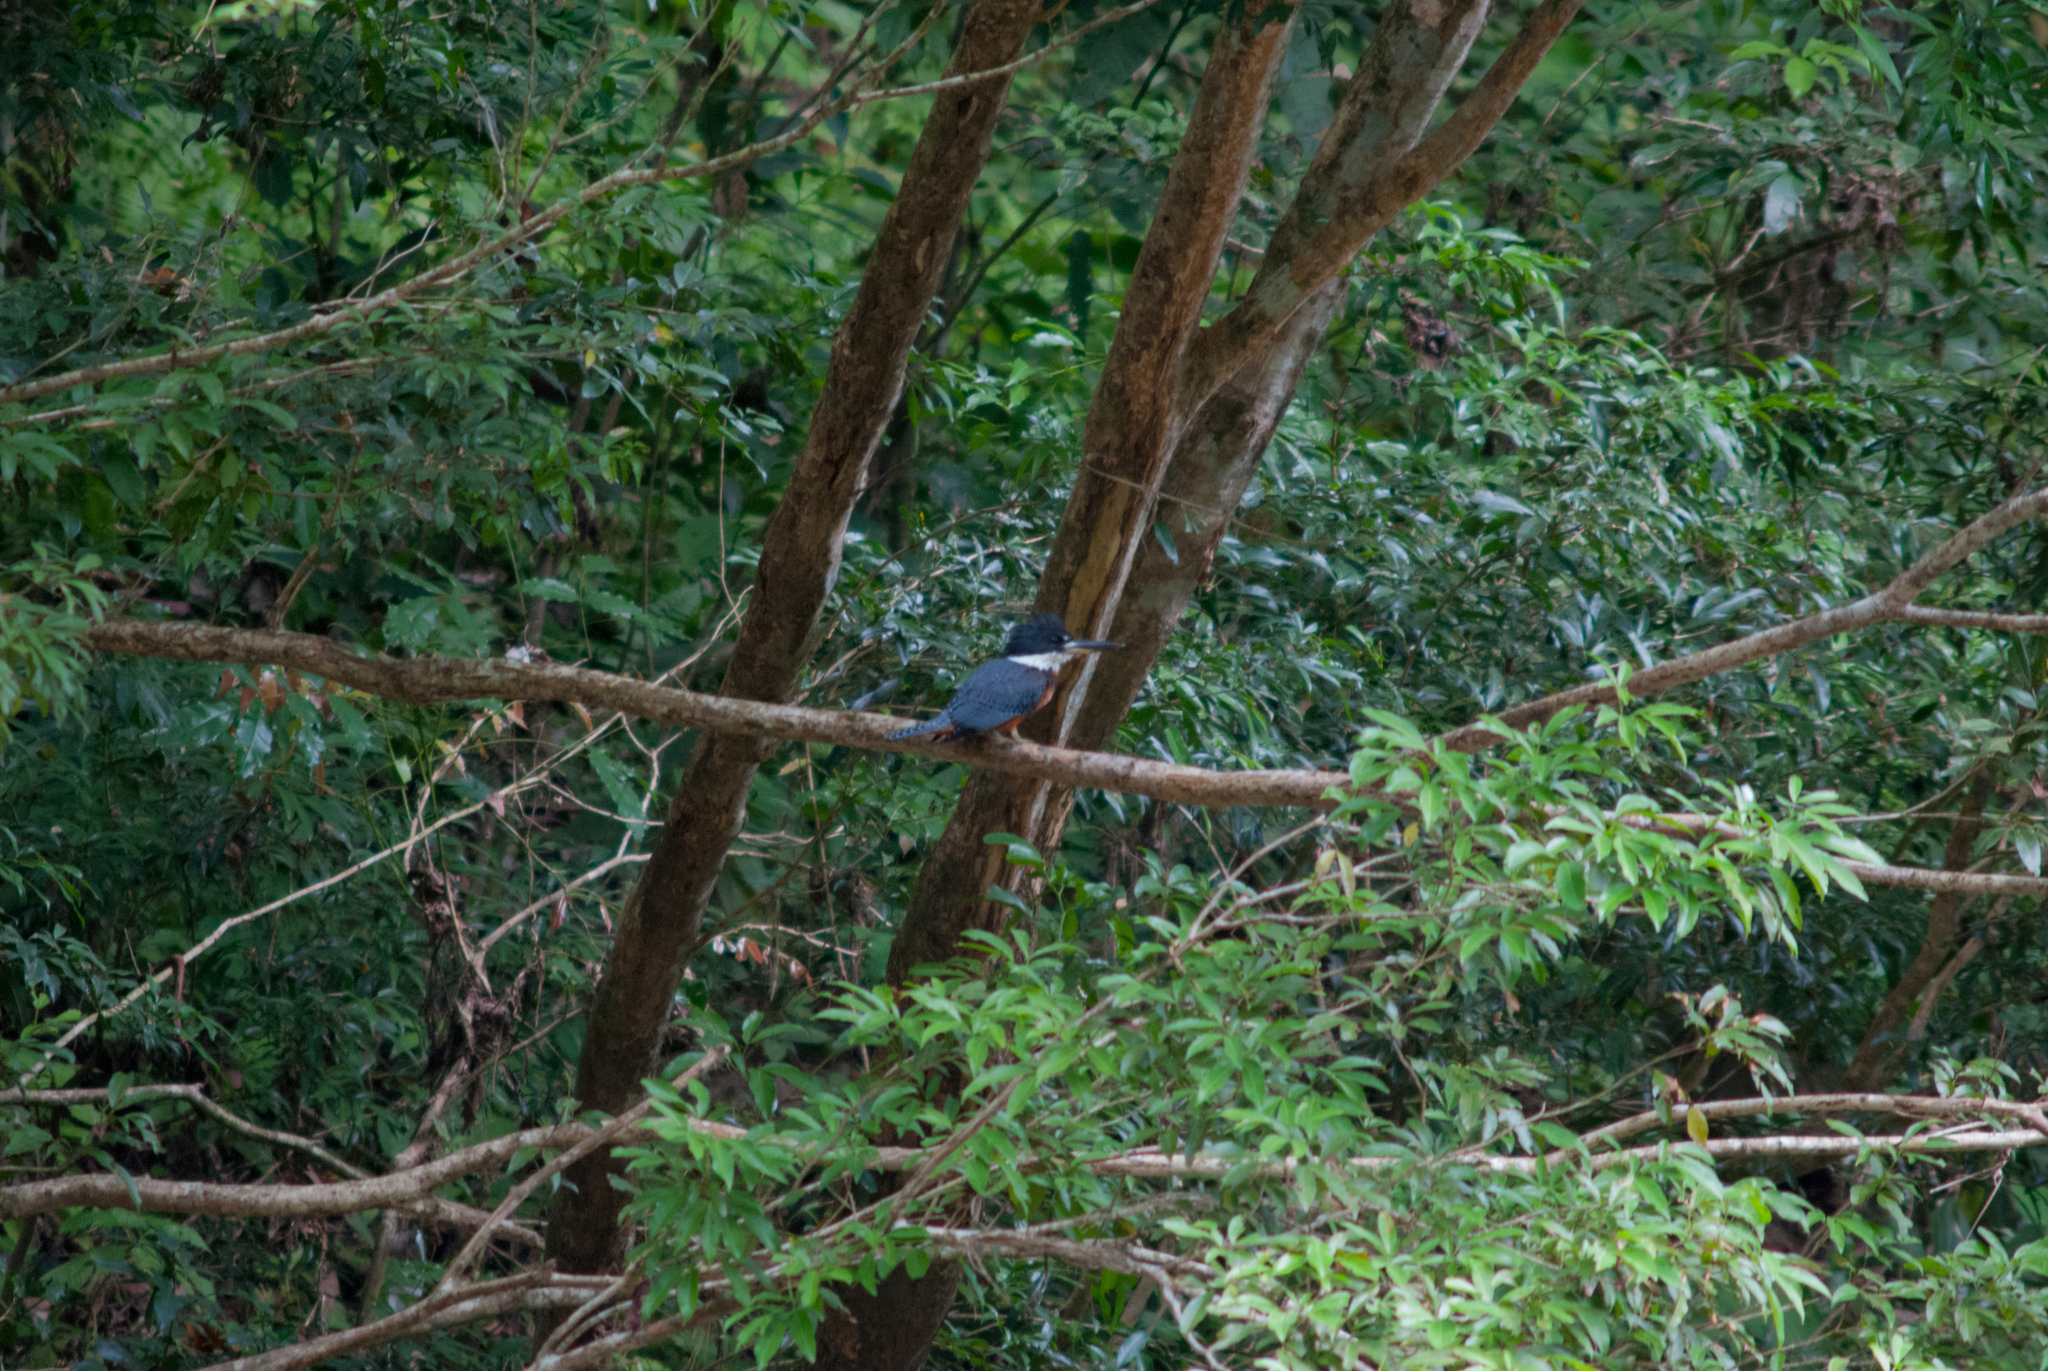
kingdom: Animalia
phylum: Chordata
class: Aves
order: Coraciiformes
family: Alcedinidae
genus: Megaceryle
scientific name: Megaceryle torquata
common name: Ringed kingfisher
